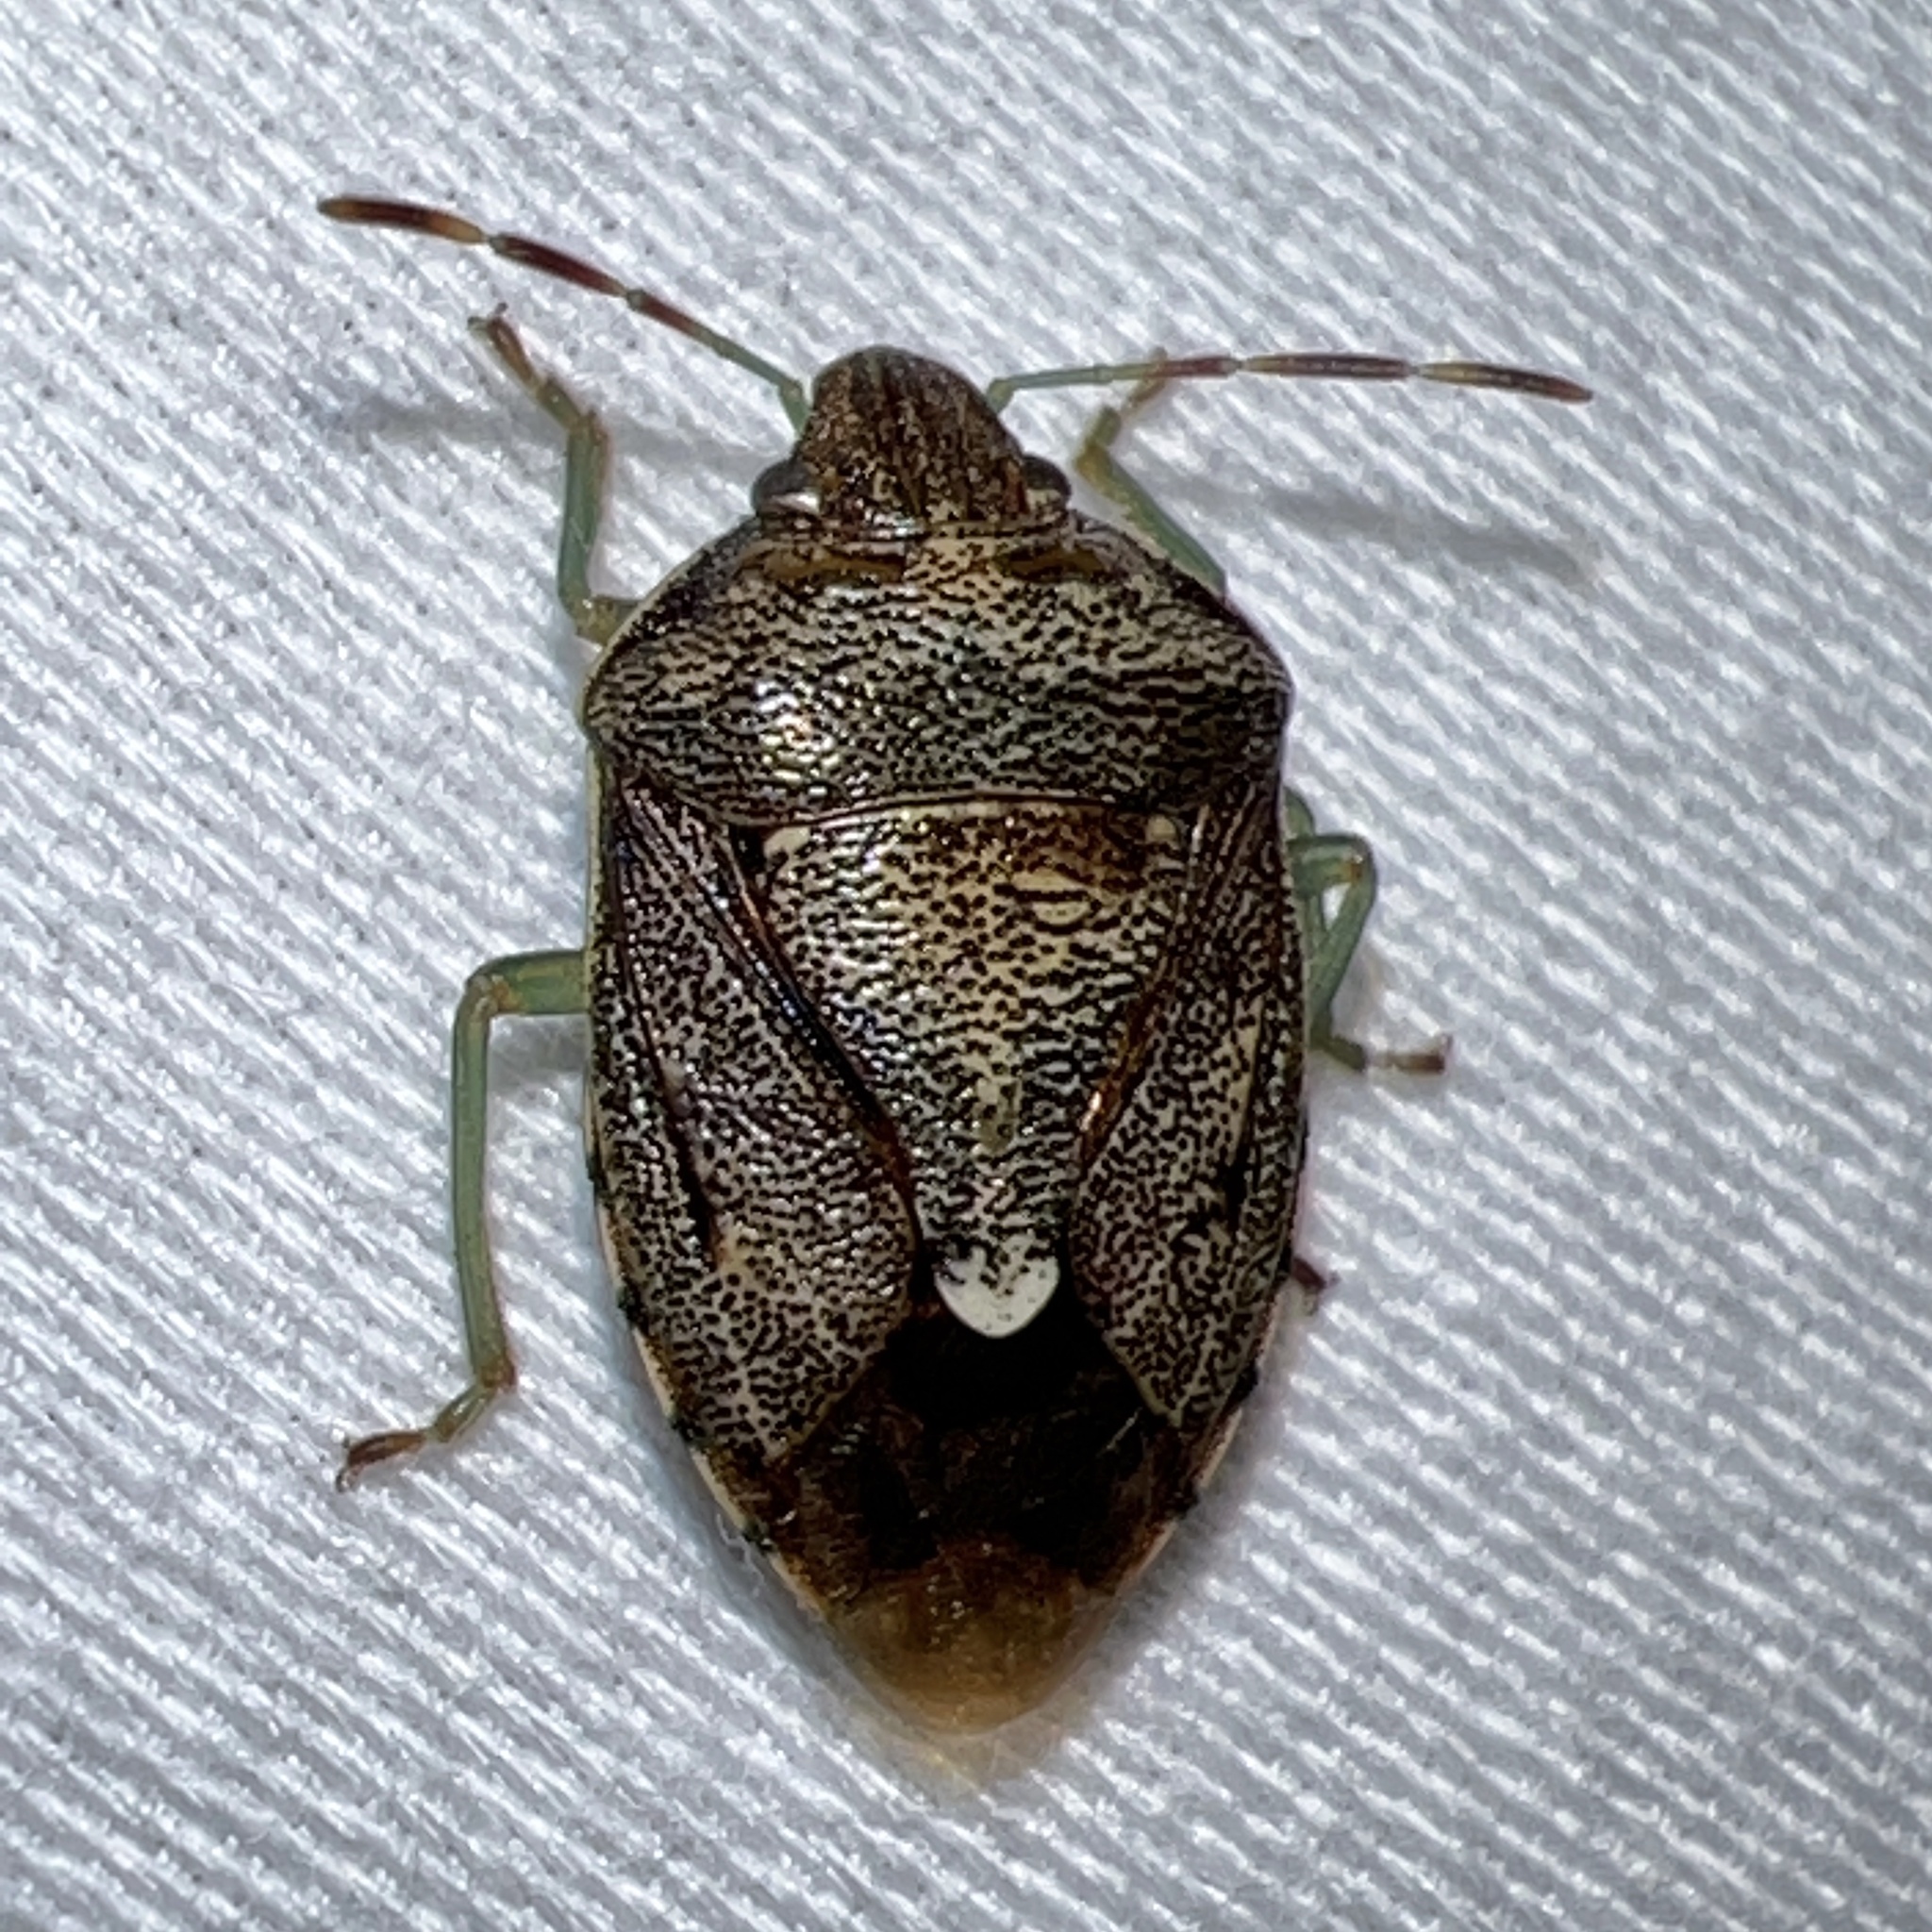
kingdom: Animalia
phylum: Arthropoda
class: Insecta
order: Hemiptera
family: Pentatomidae
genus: Banasa
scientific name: Banasa sordida
